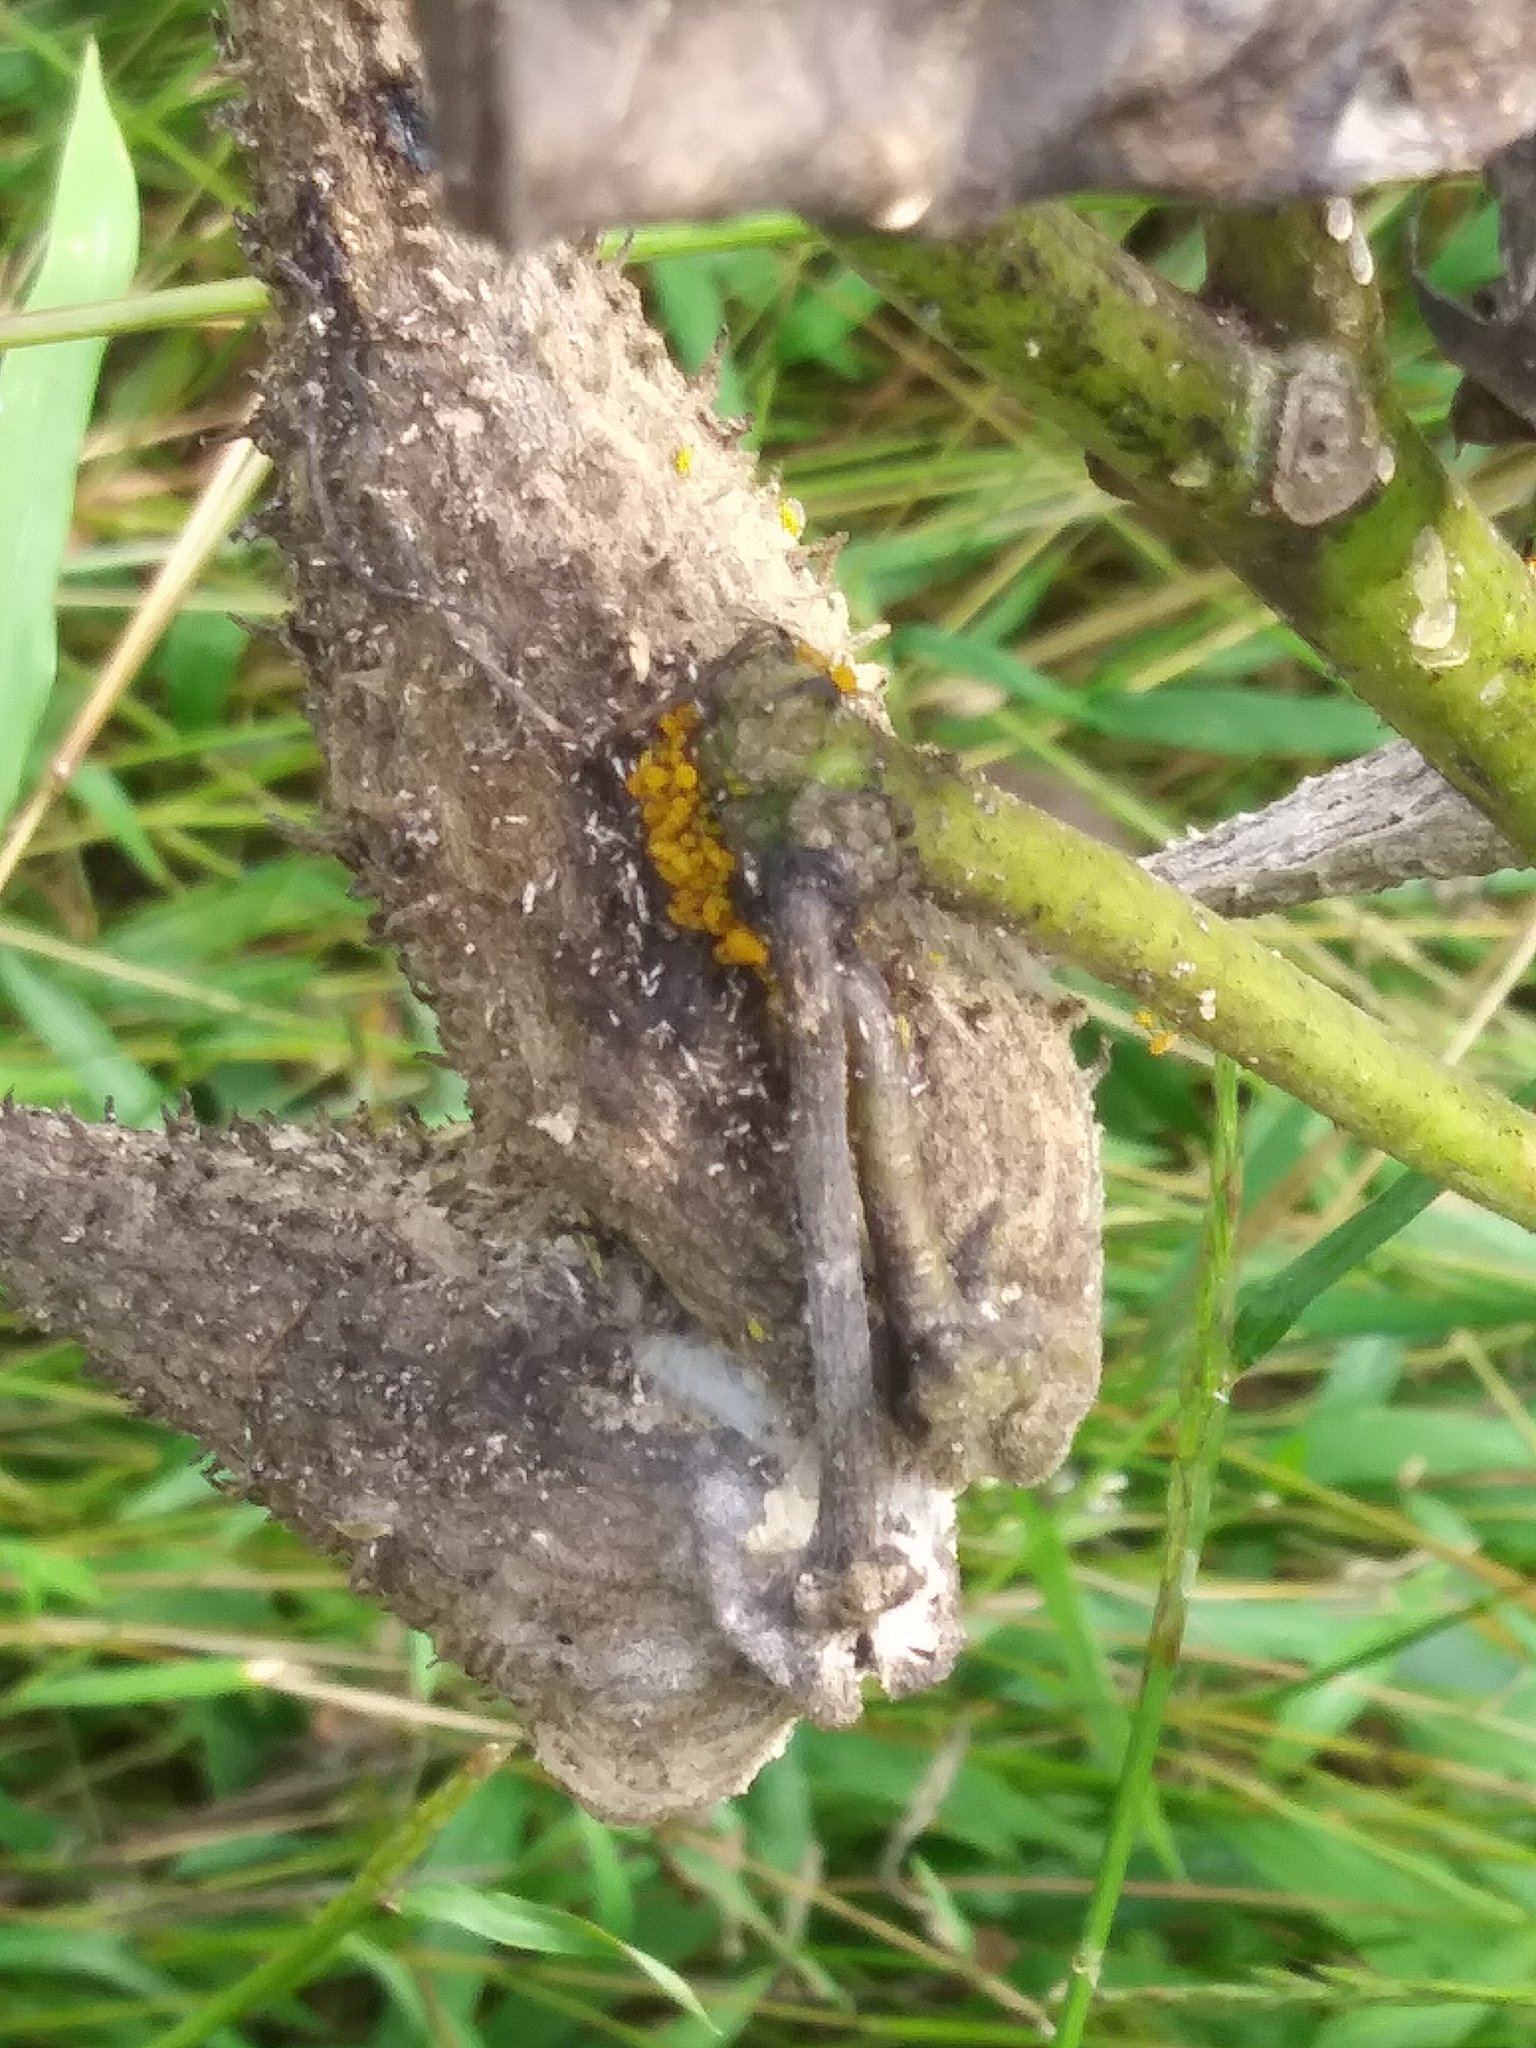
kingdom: Animalia
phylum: Arthropoda
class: Insecta
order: Hemiptera
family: Aphididae
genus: Aphis
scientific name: Aphis nerii
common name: Oleander aphid
